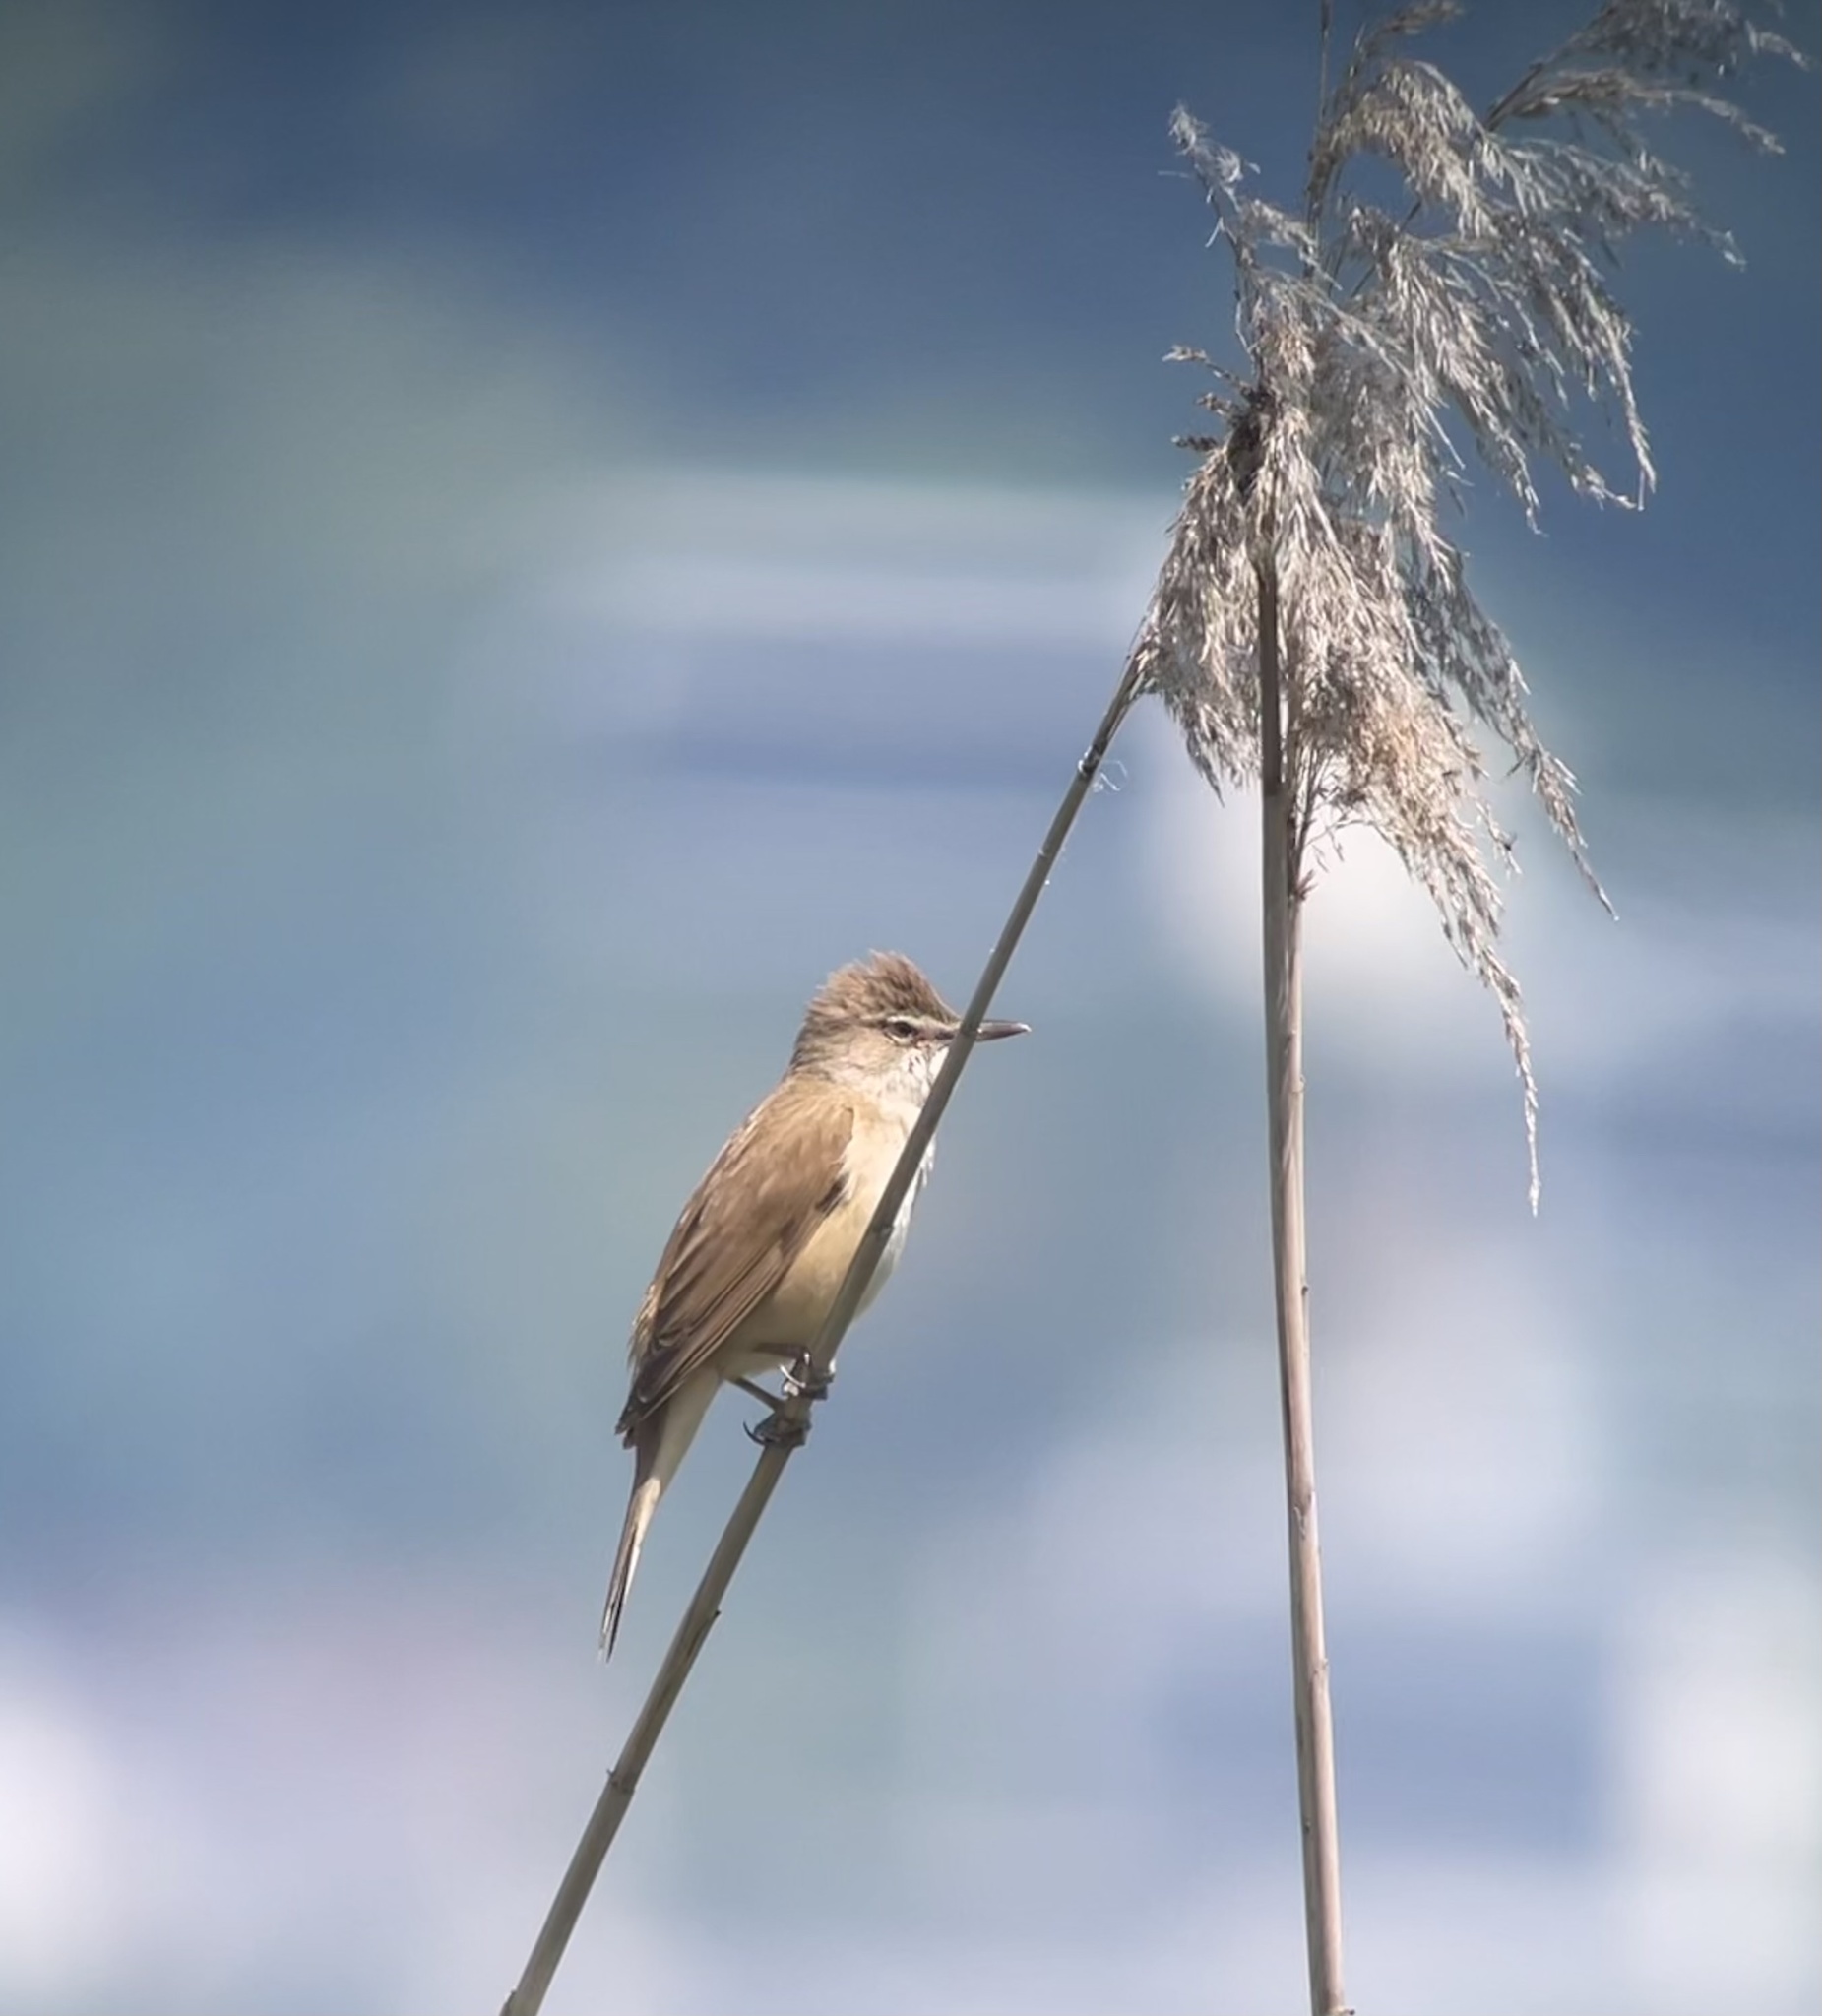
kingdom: Animalia
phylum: Chordata
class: Aves
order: Passeriformes
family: Acrocephalidae
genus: Acrocephalus
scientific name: Acrocephalus arundinaceus
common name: Great reed warbler
